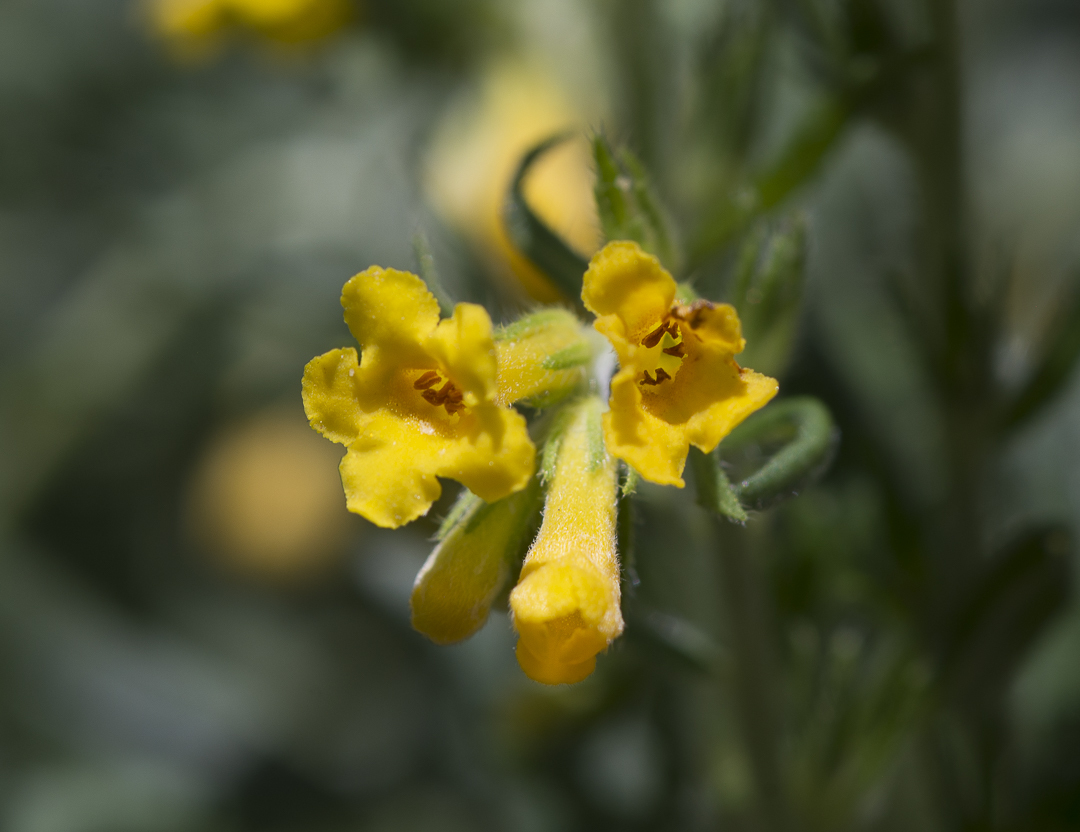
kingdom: Plantae
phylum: Tracheophyta
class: Magnoliopsida
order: Boraginales
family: Boraginaceae
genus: Lithospermum
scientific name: Lithospermum multiflorum
